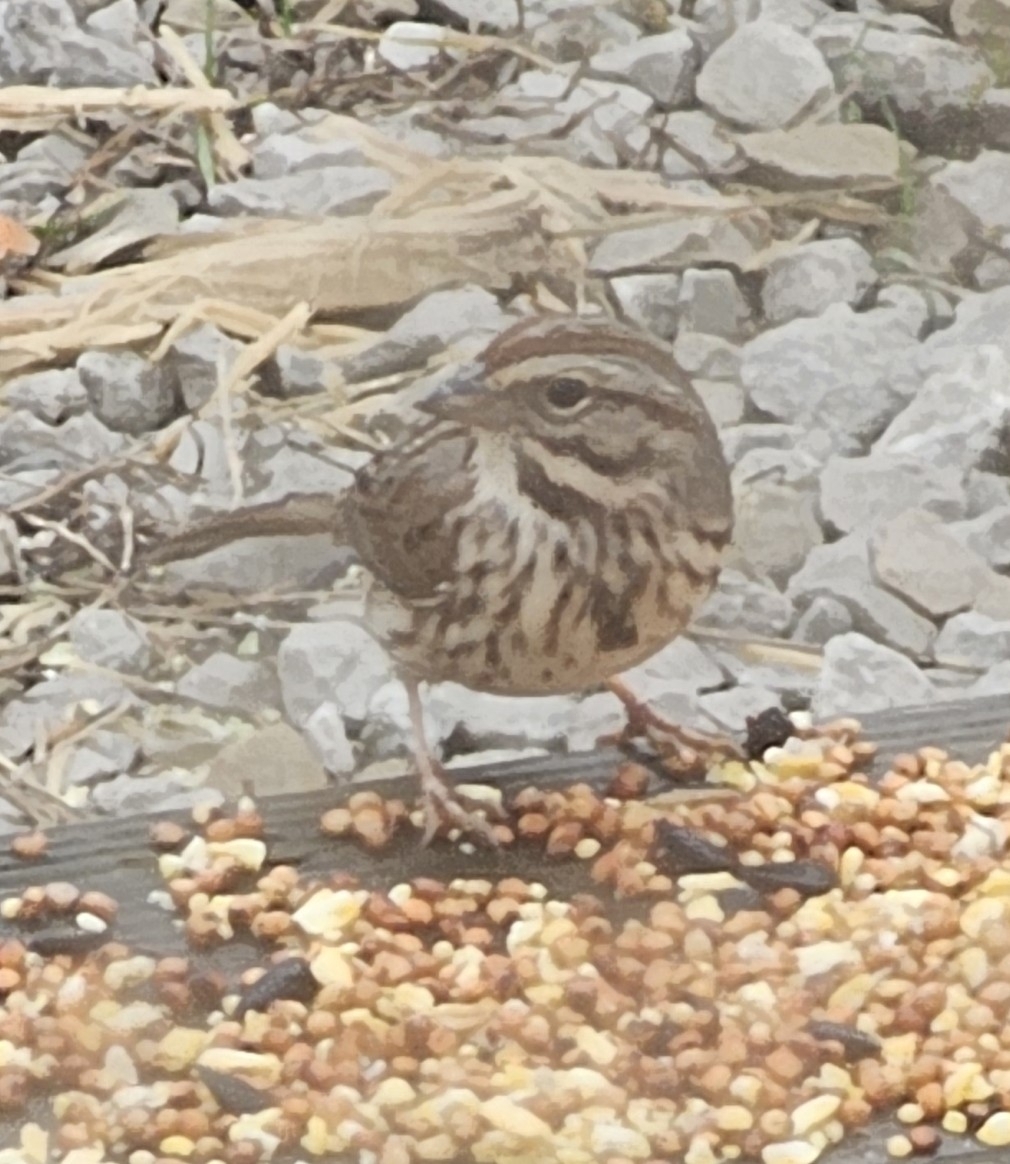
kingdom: Animalia
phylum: Chordata
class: Aves
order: Passeriformes
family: Passerellidae
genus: Melospiza
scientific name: Melospiza melodia
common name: Song sparrow
